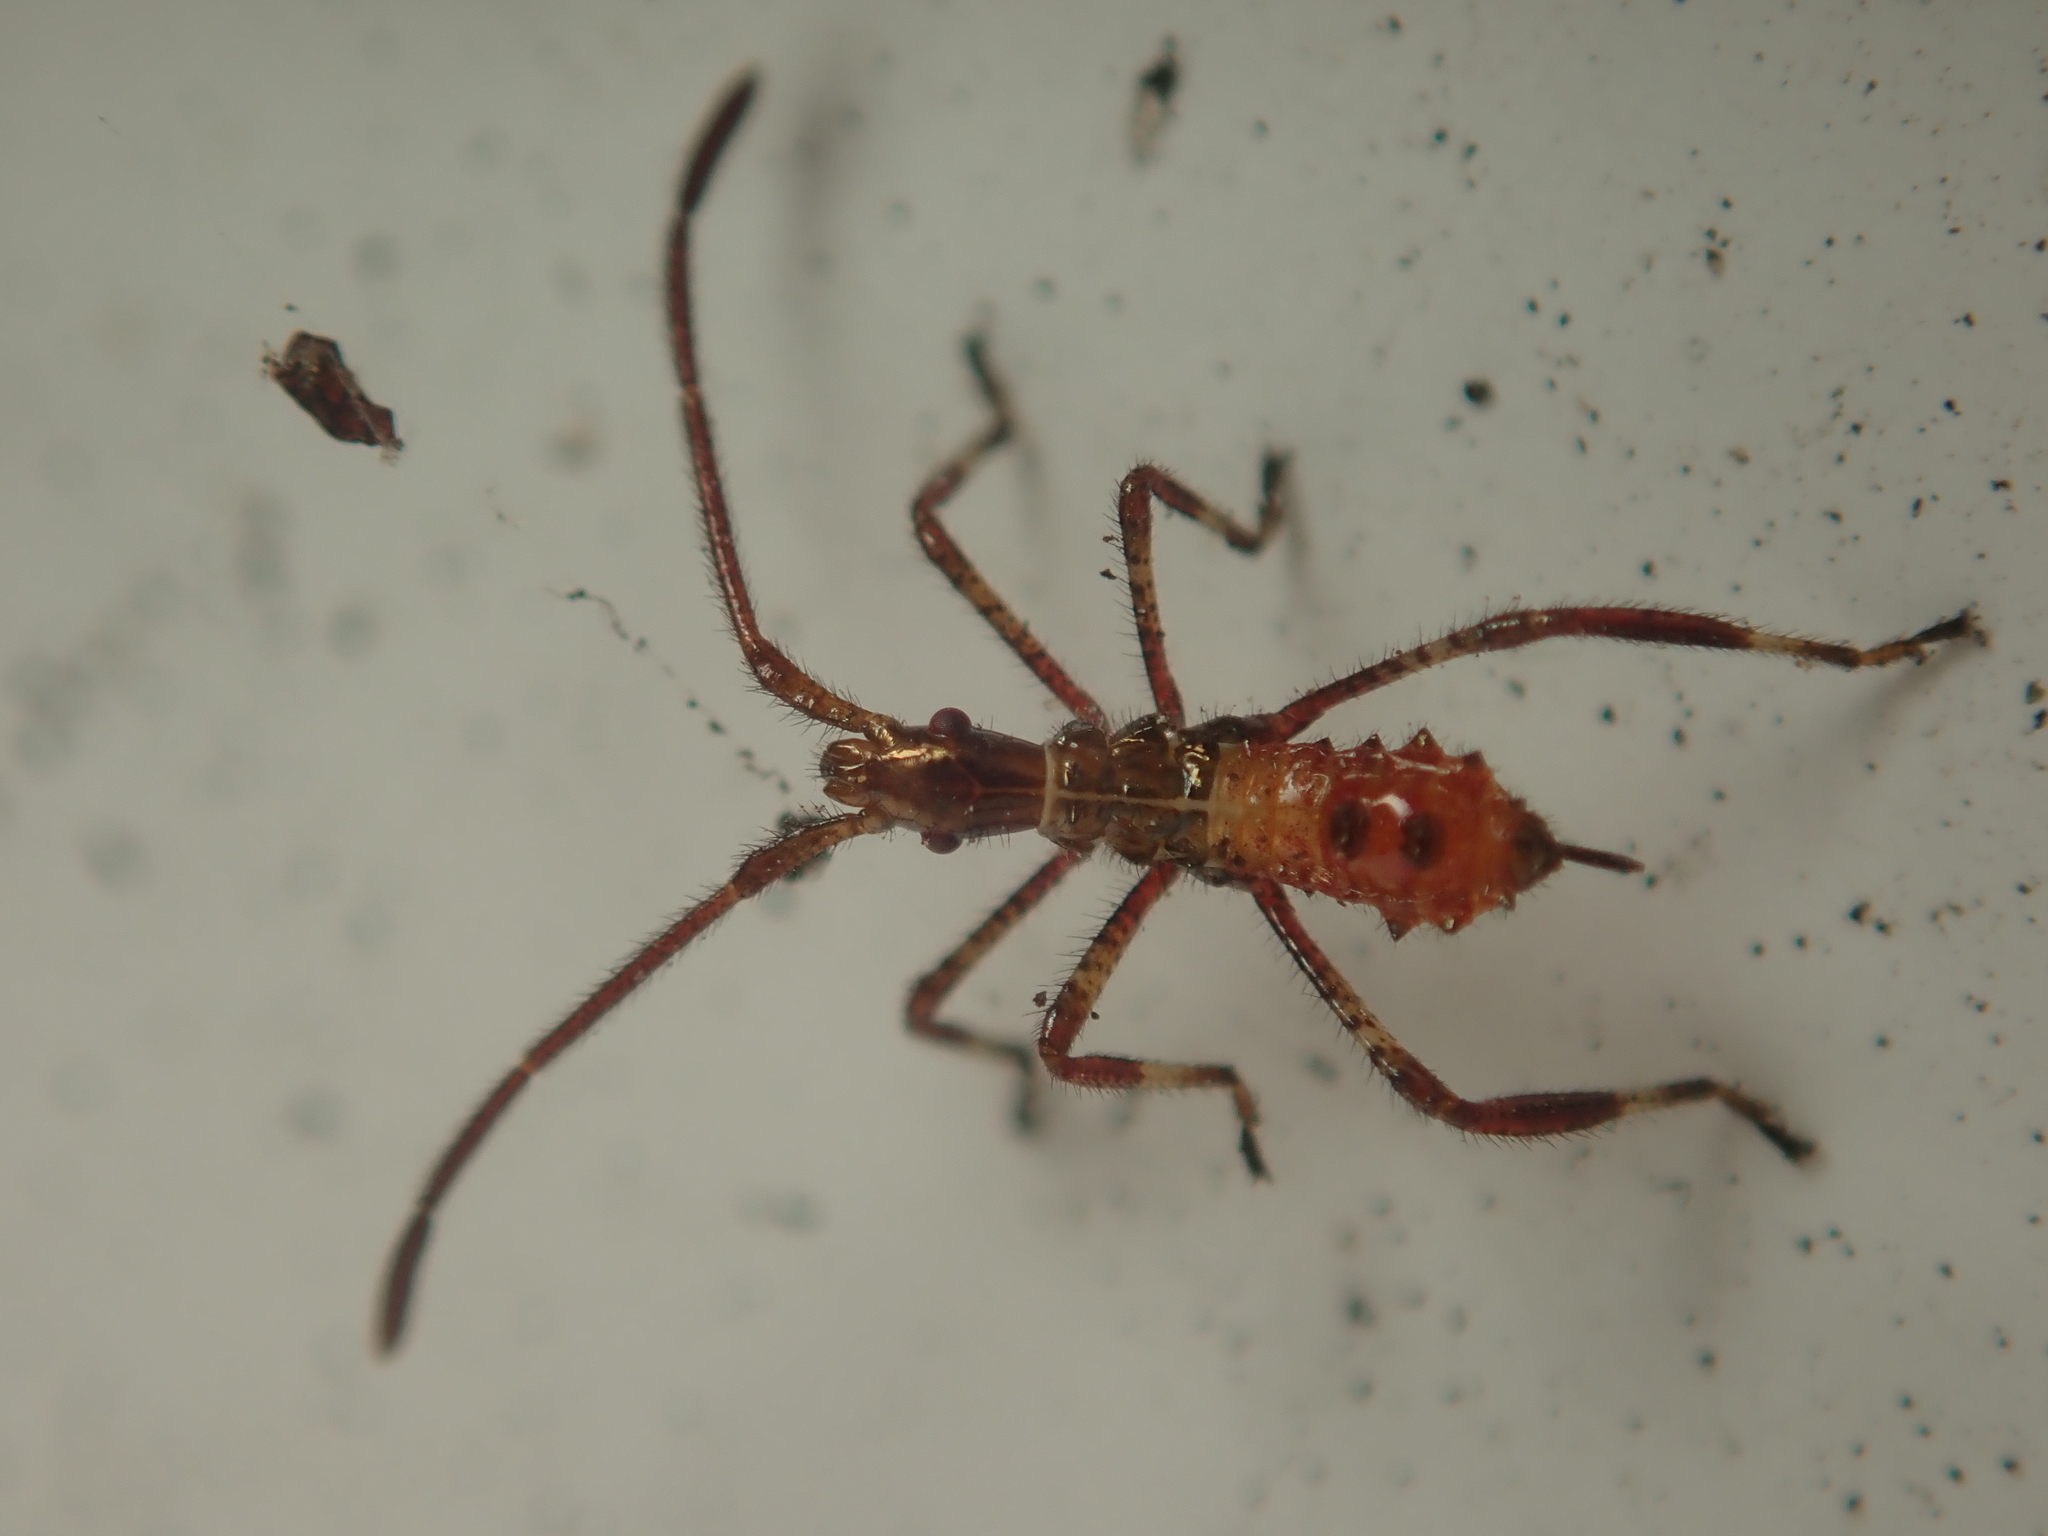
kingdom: Animalia
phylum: Arthropoda
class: Insecta
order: Hemiptera
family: Coreidae
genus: Leptoglossus
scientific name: Leptoglossus occidentalis
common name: Western conifer-seed bug
